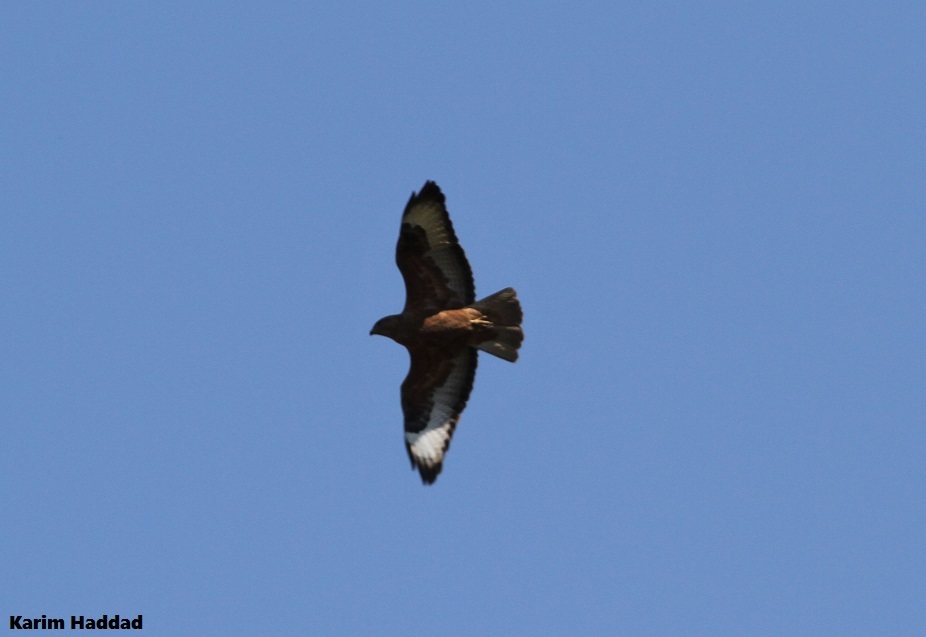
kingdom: Animalia
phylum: Chordata
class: Aves
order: Accipitriformes
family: Accipitridae
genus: Buteo
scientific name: Buteo rufinus
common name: Long-legged buzzard
